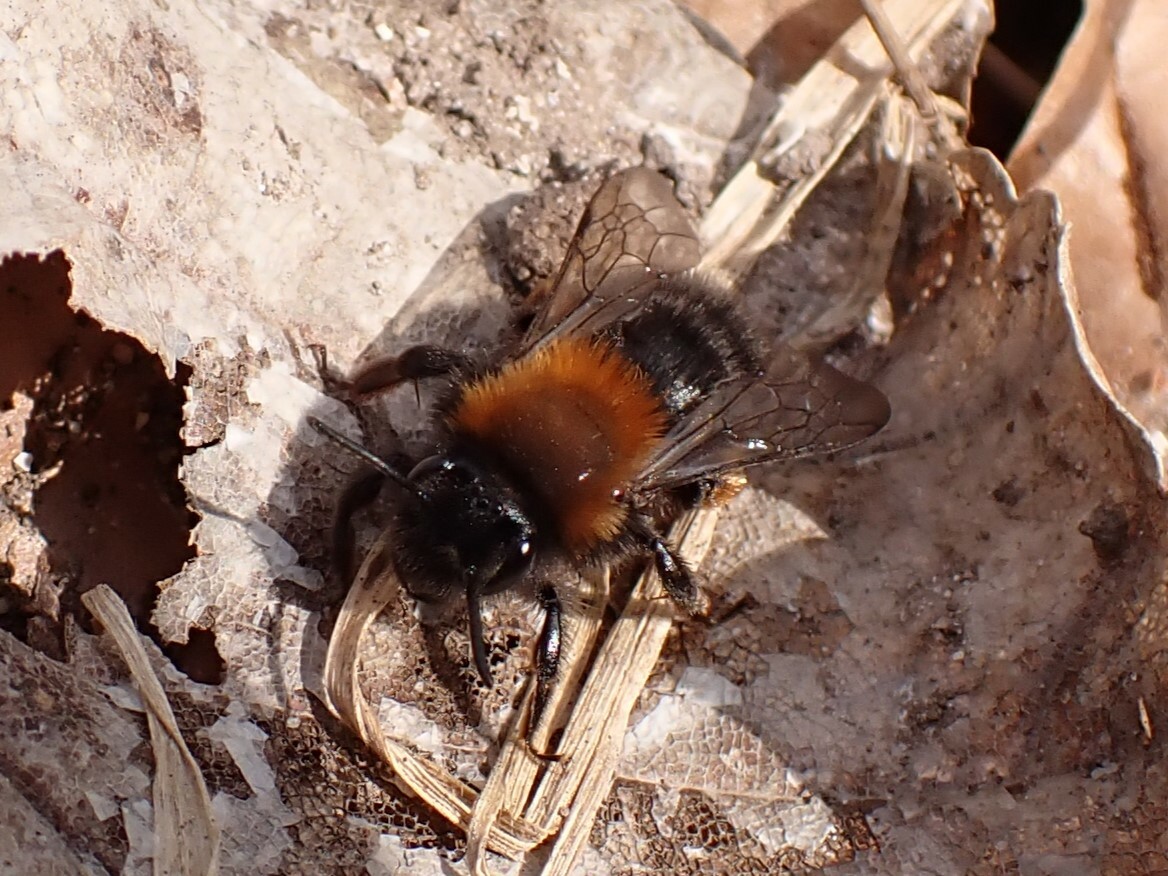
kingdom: Animalia
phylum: Arthropoda
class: Insecta
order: Hymenoptera
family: Andrenidae
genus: Andrena
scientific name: Andrena clarkella
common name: Clarke's mining bee
